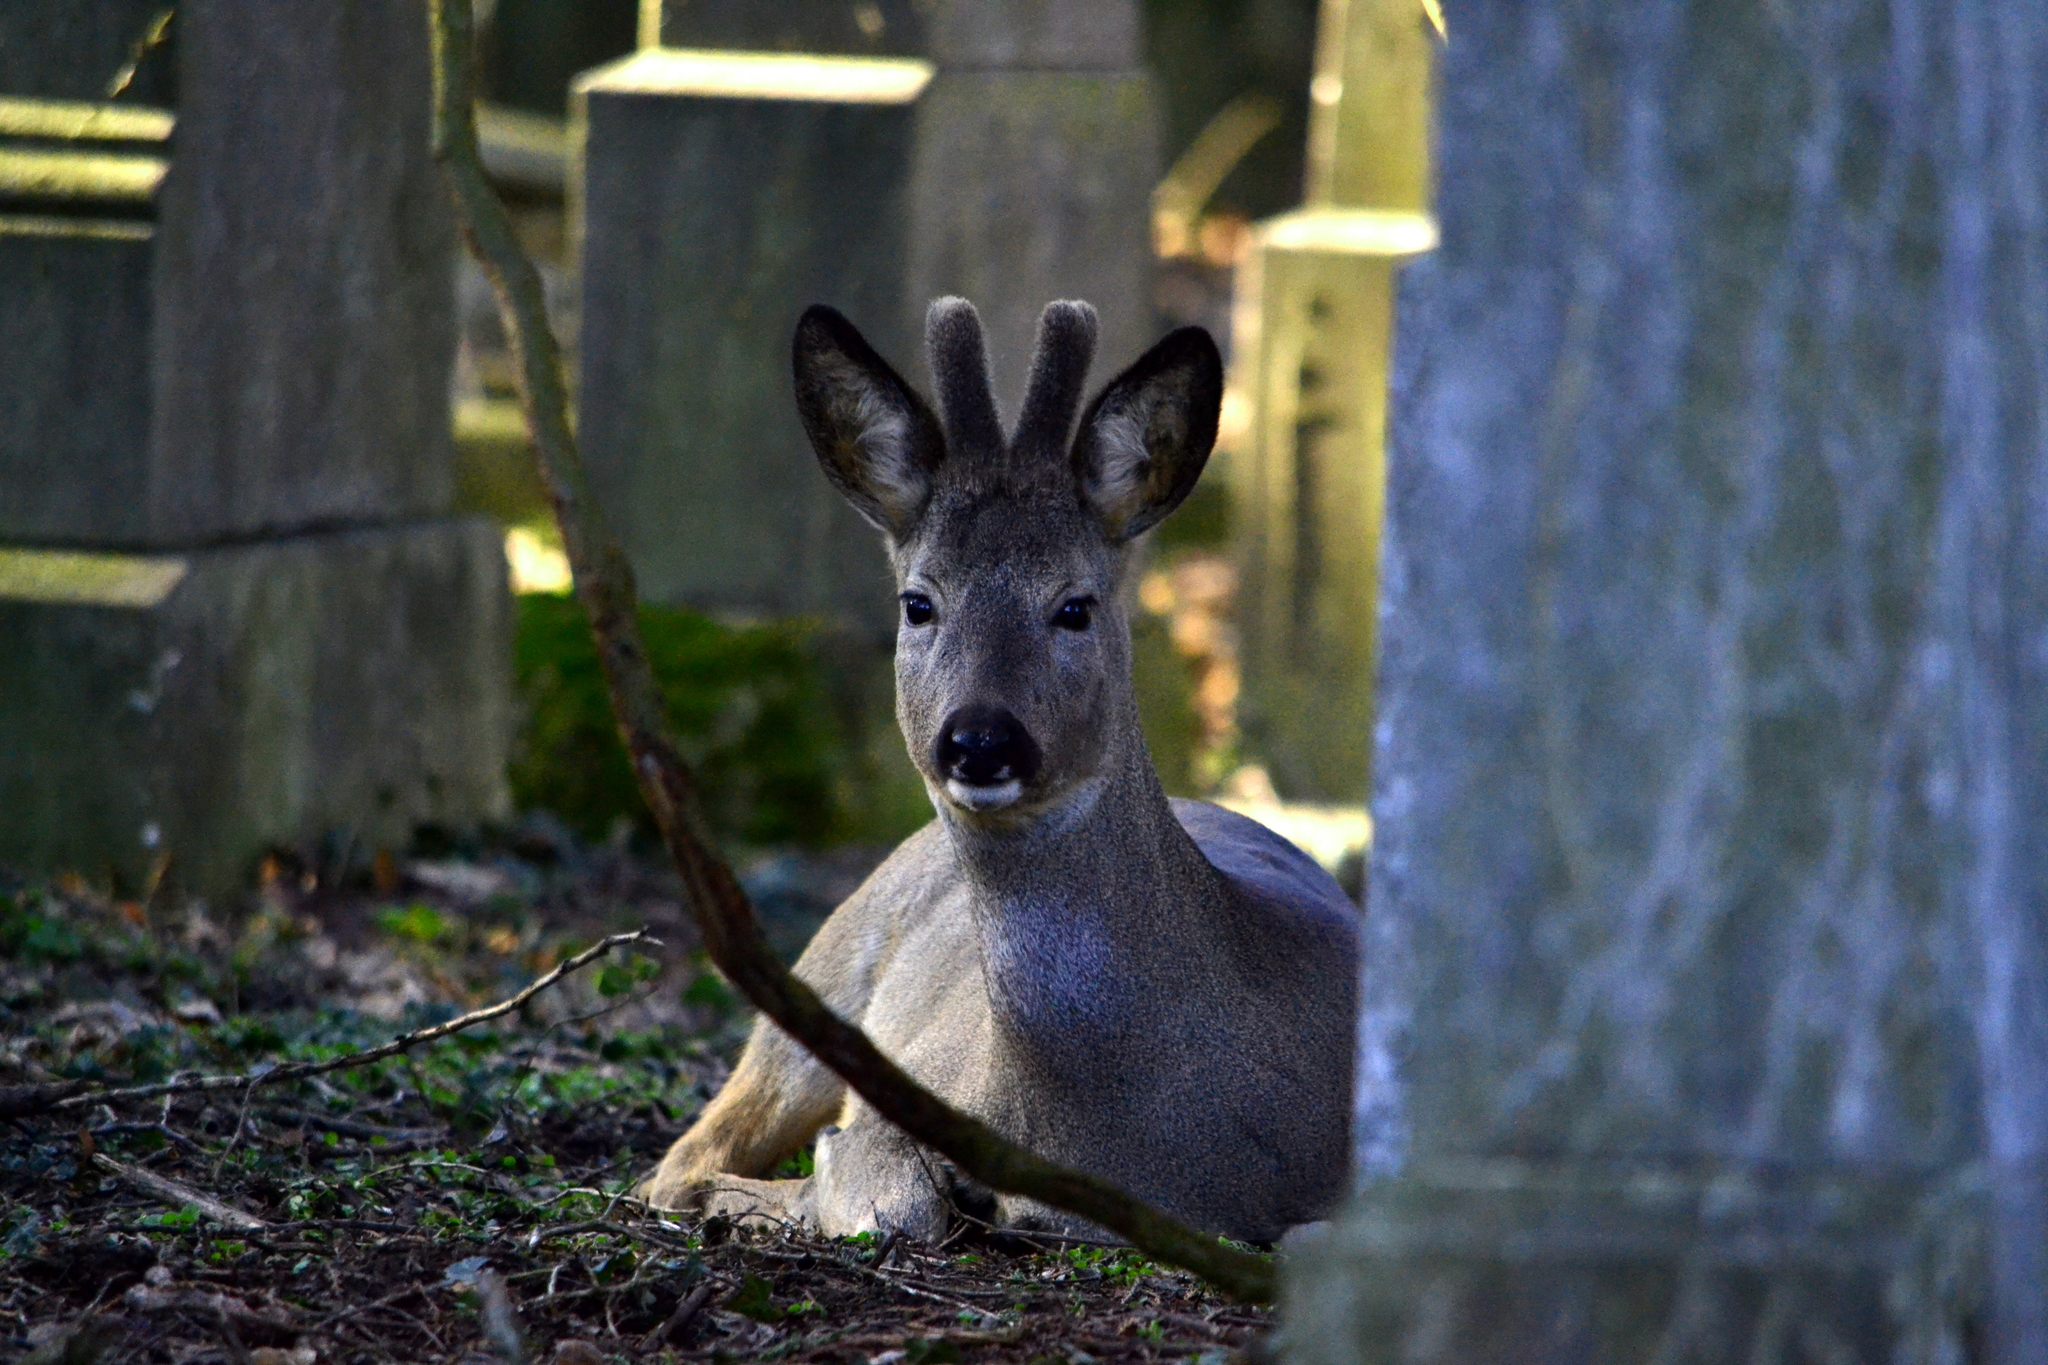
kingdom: Animalia
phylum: Chordata
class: Mammalia
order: Artiodactyla
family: Cervidae
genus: Capreolus
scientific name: Capreolus capreolus
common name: Western roe deer
